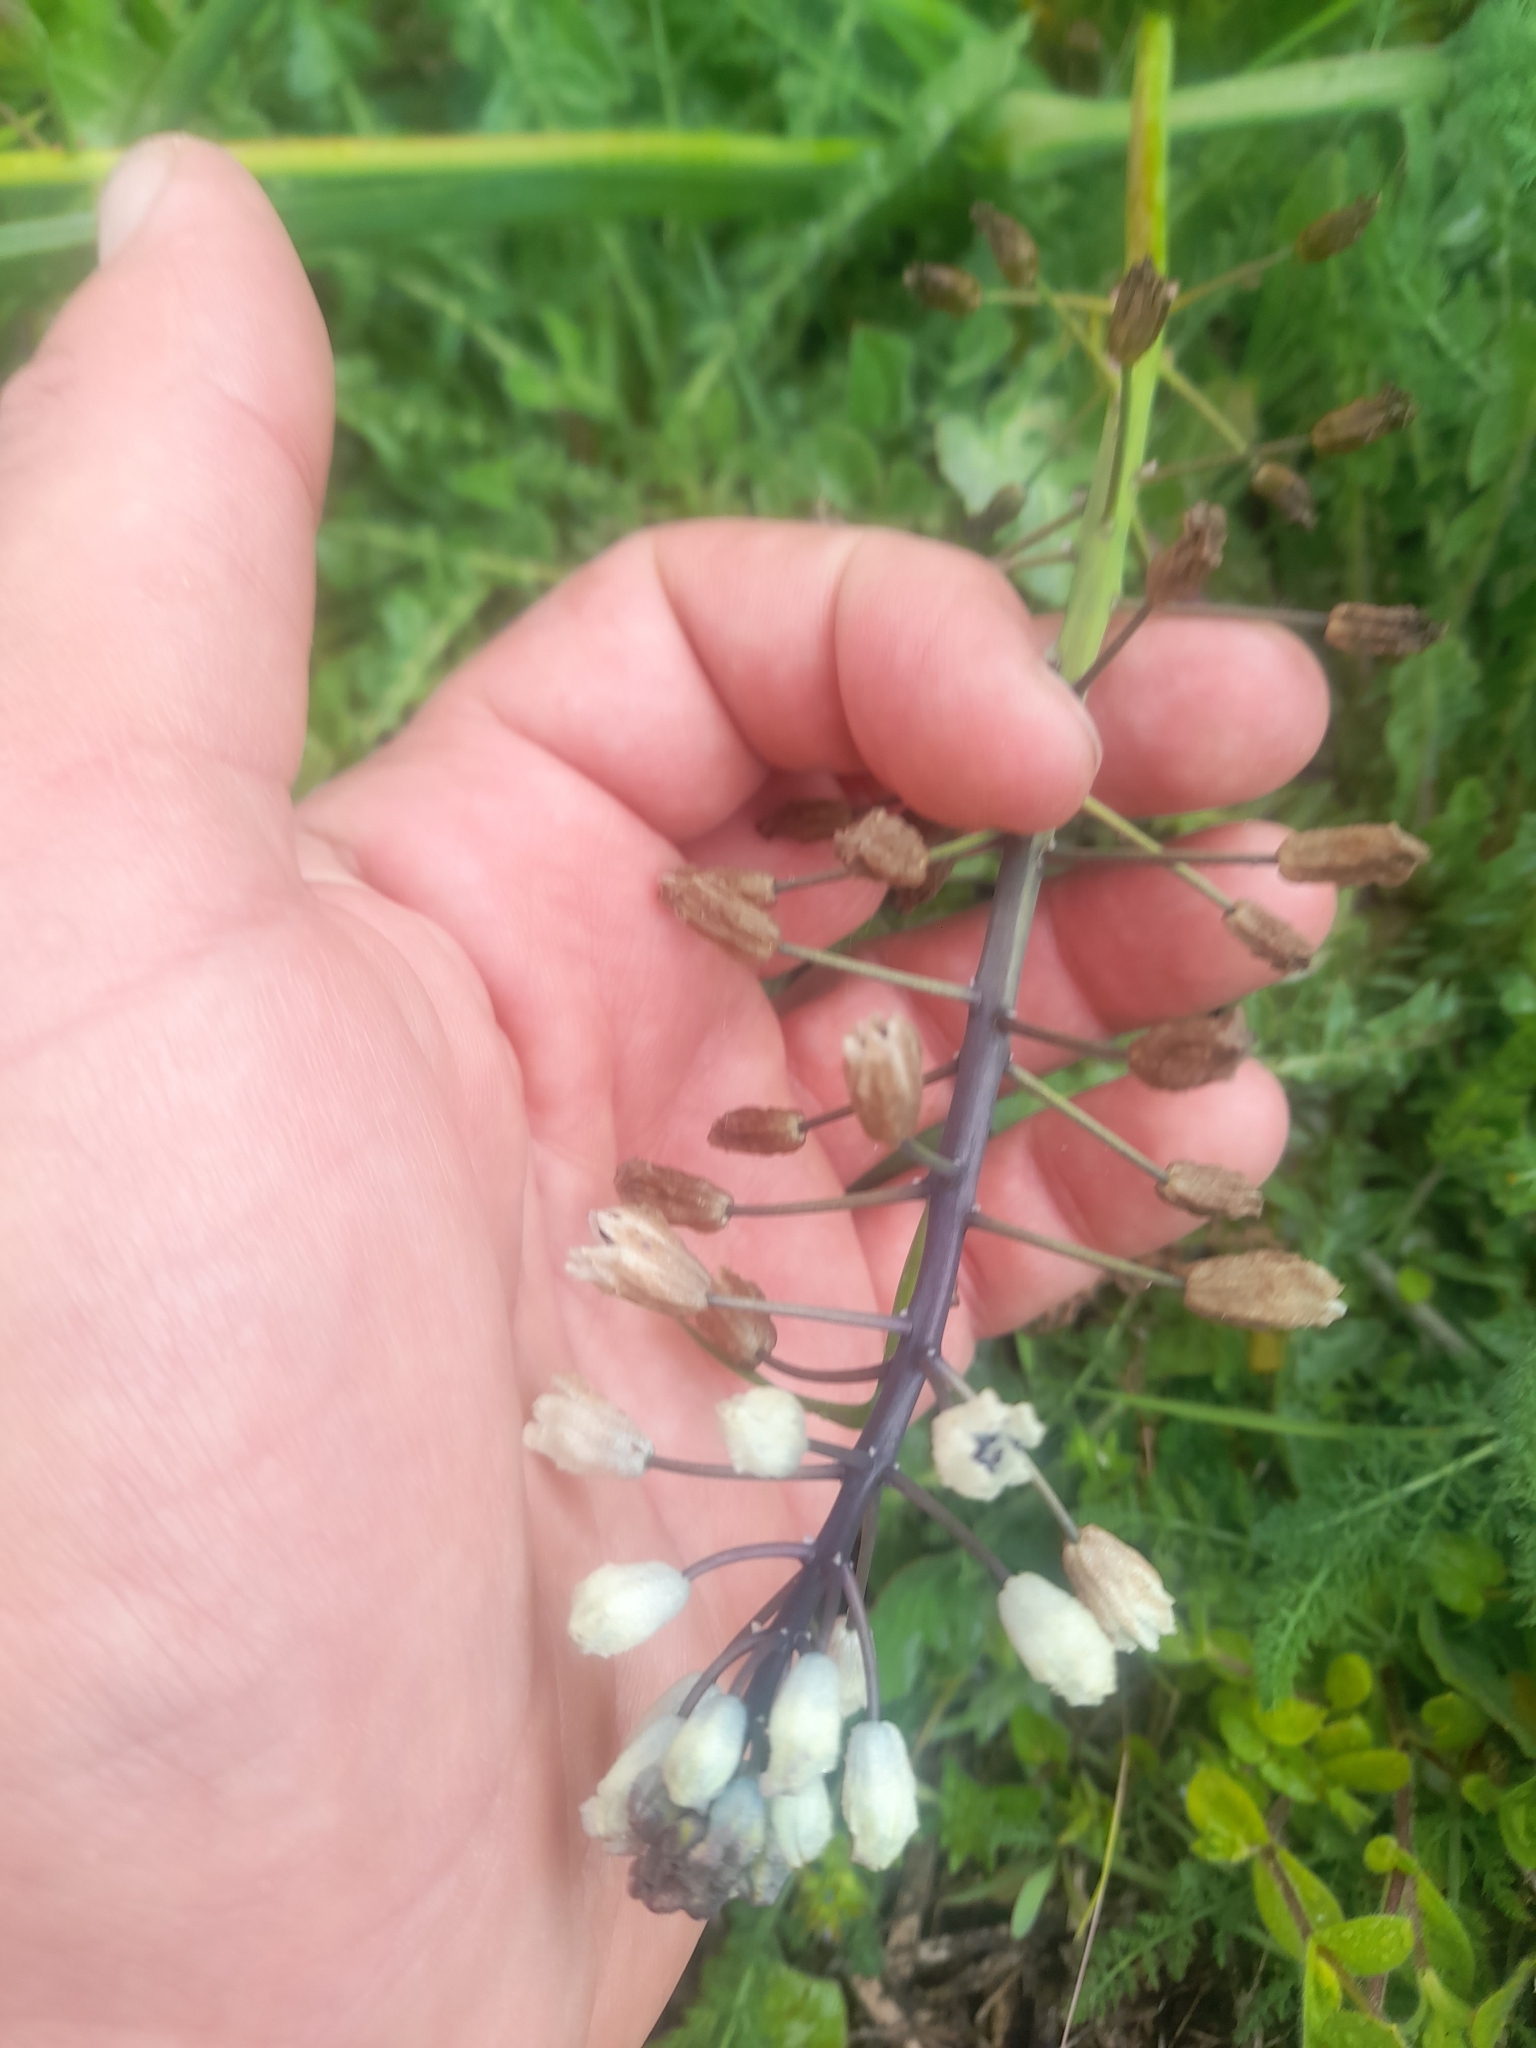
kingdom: Plantae
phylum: Tracheophyta
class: Liliopsida
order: Asparagales
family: Asparagaceae
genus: Bellevalia
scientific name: Bellevalia romana
